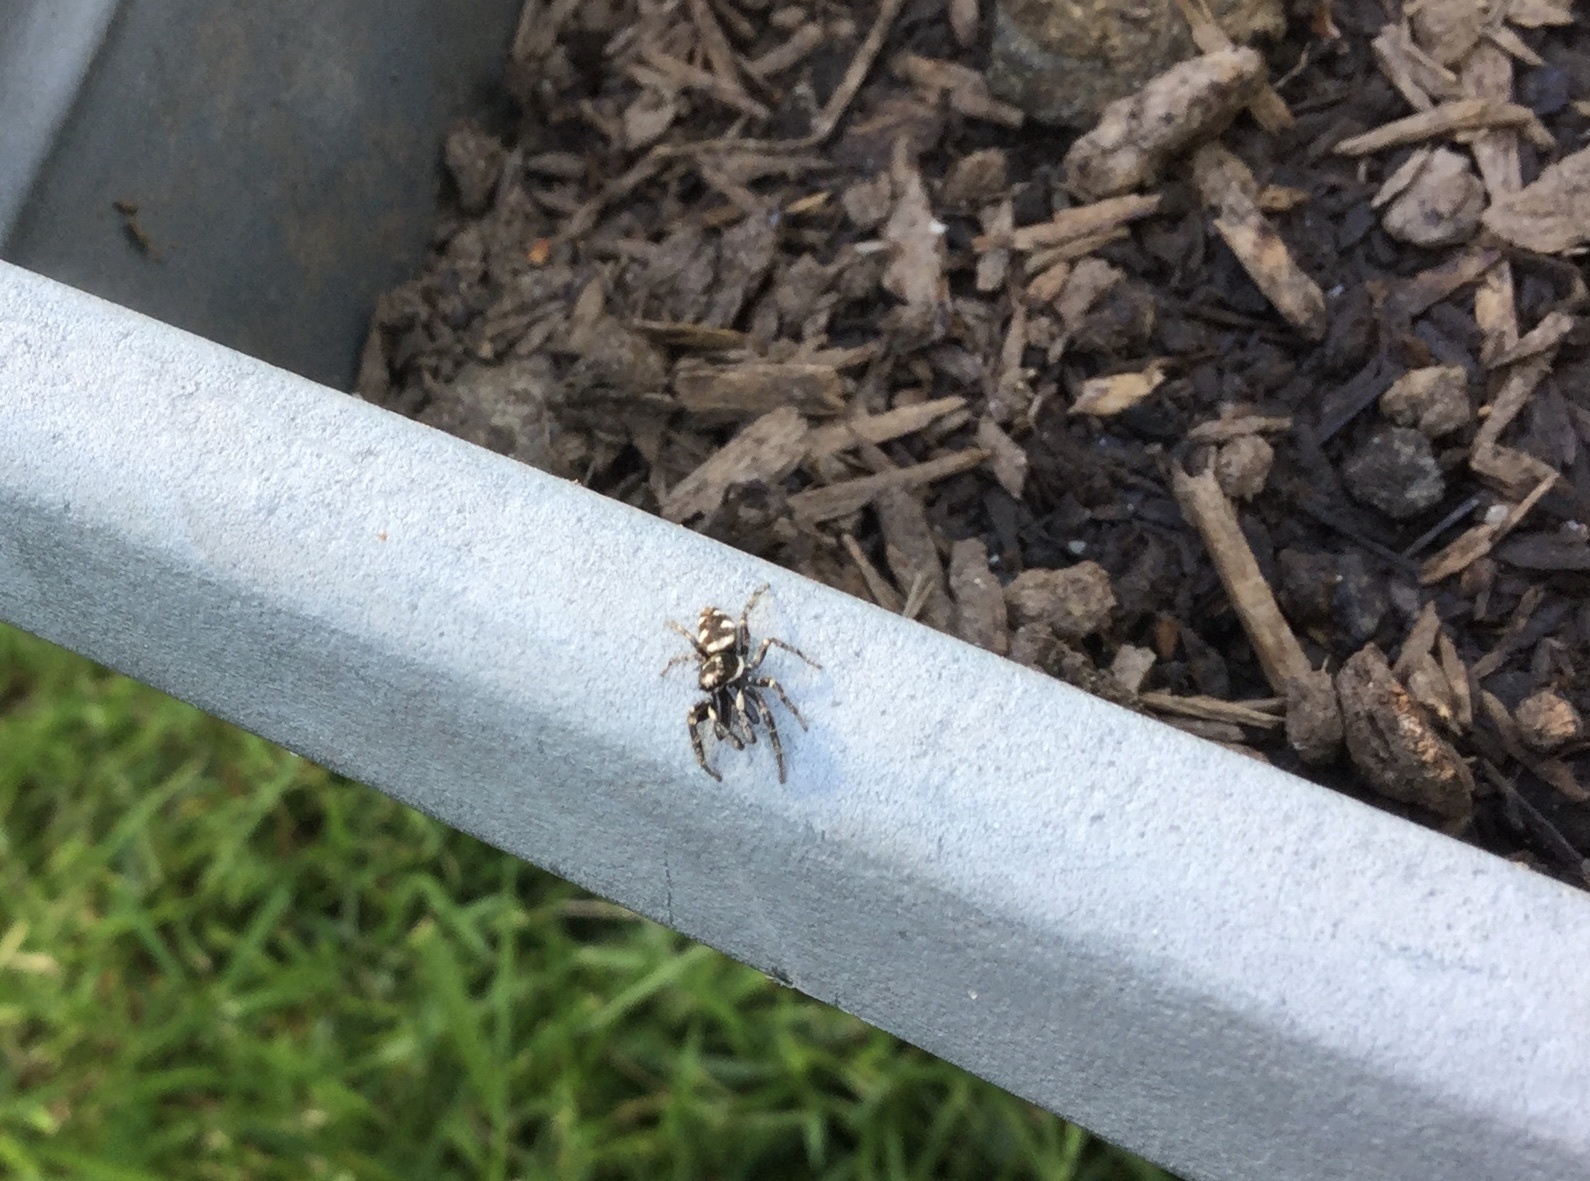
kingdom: Animalia
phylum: Arthropoda
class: Arachnida
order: Araneae
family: Salticidae
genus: Salticus
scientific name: Salticus scenicus
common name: Zebra jumper
